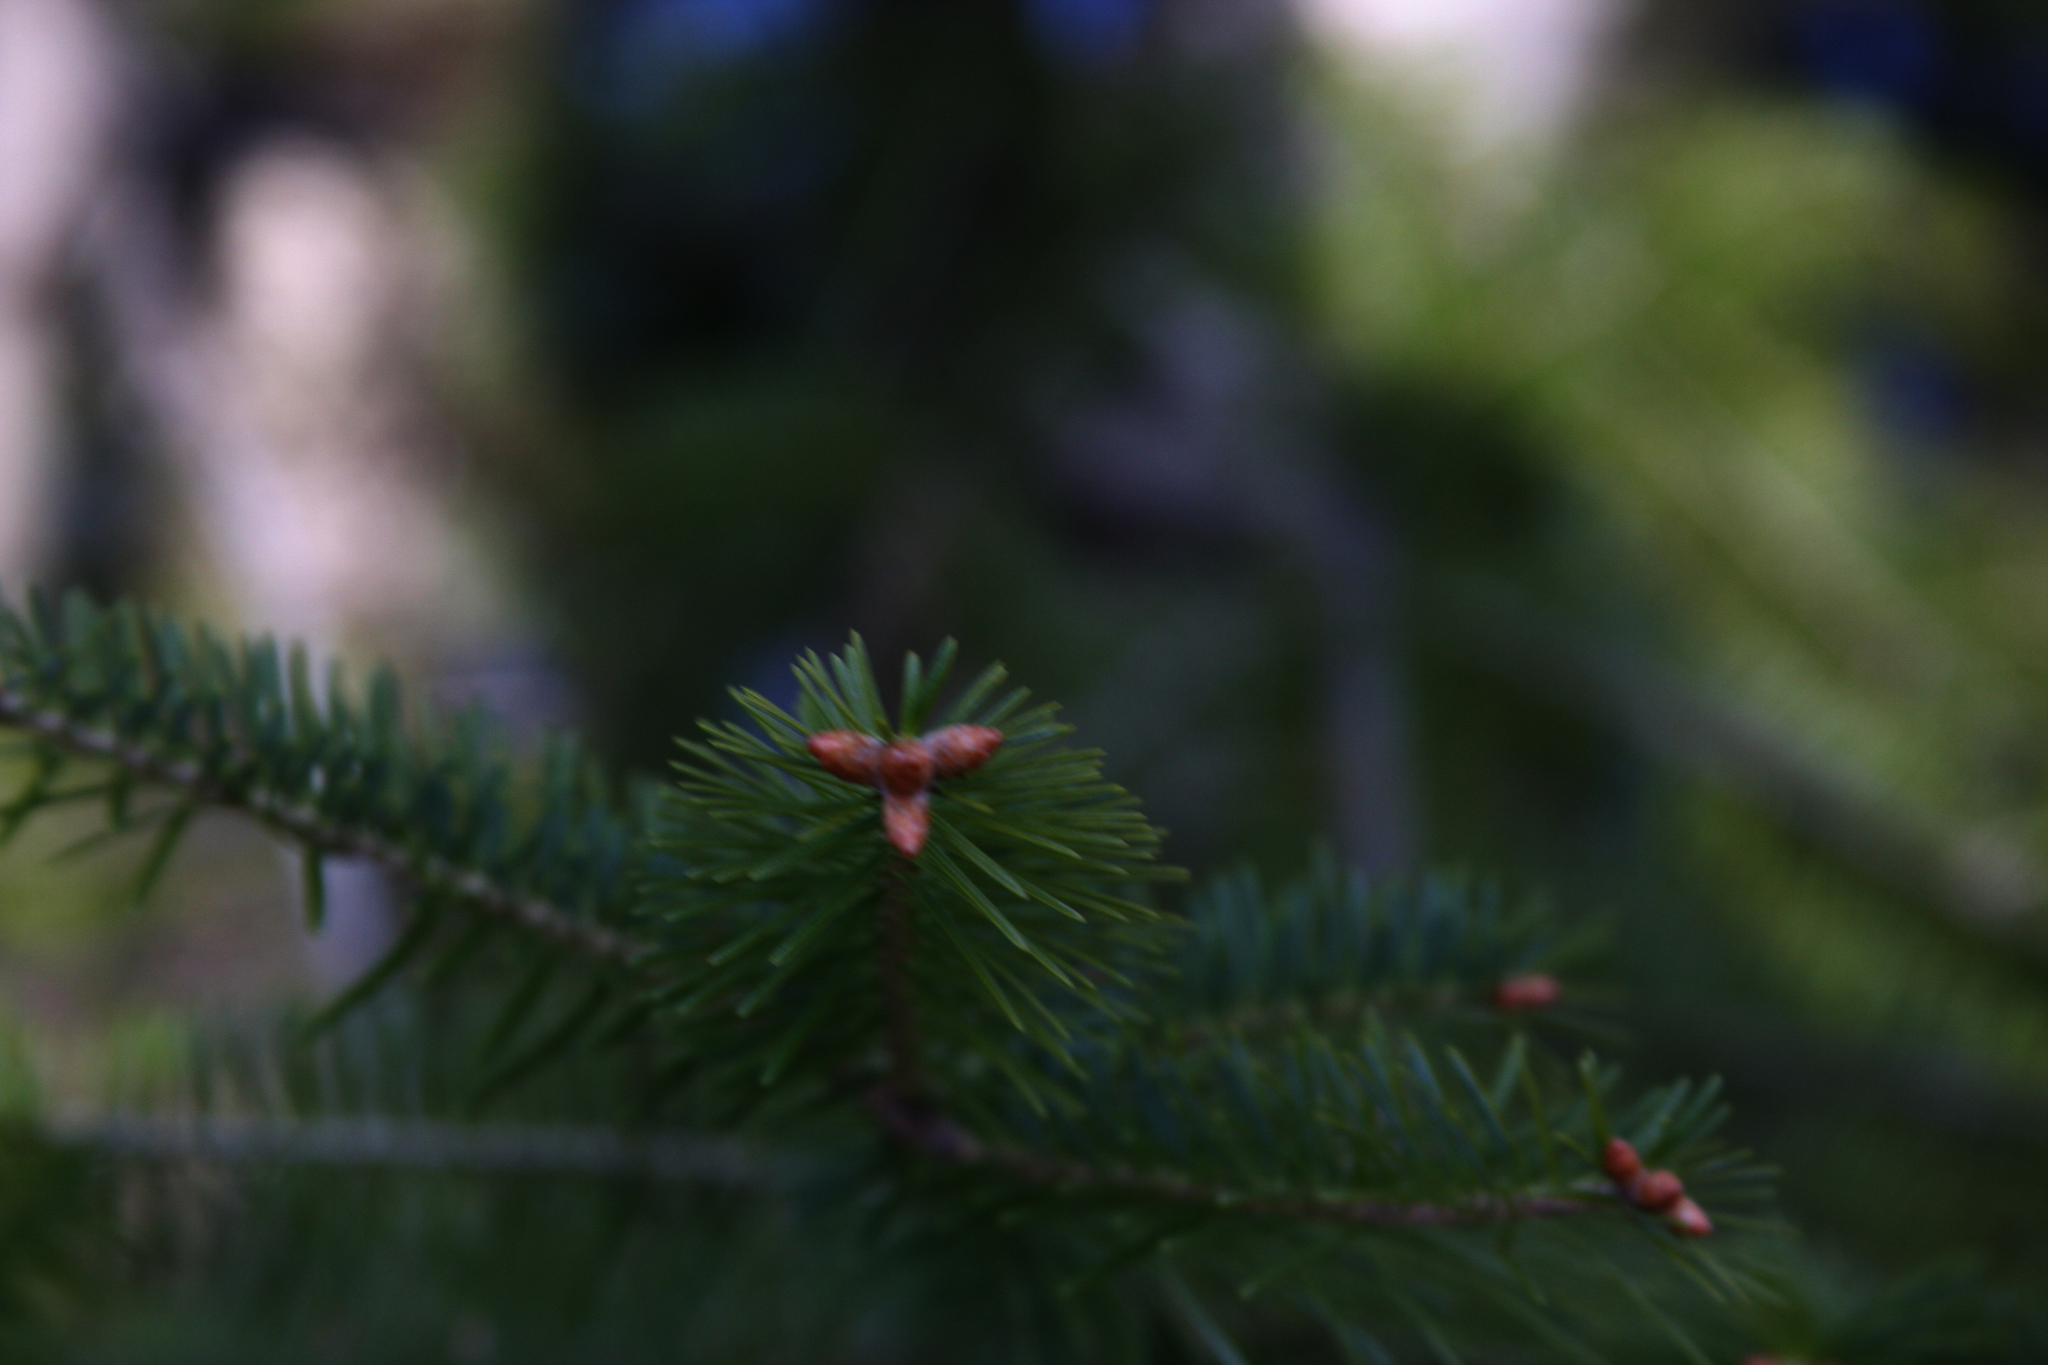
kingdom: Plantae
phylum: Tracheophyta
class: Pinopsida
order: Pinales
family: Pinaceae
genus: Abies
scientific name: Abies balsamea
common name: Balsam fir
